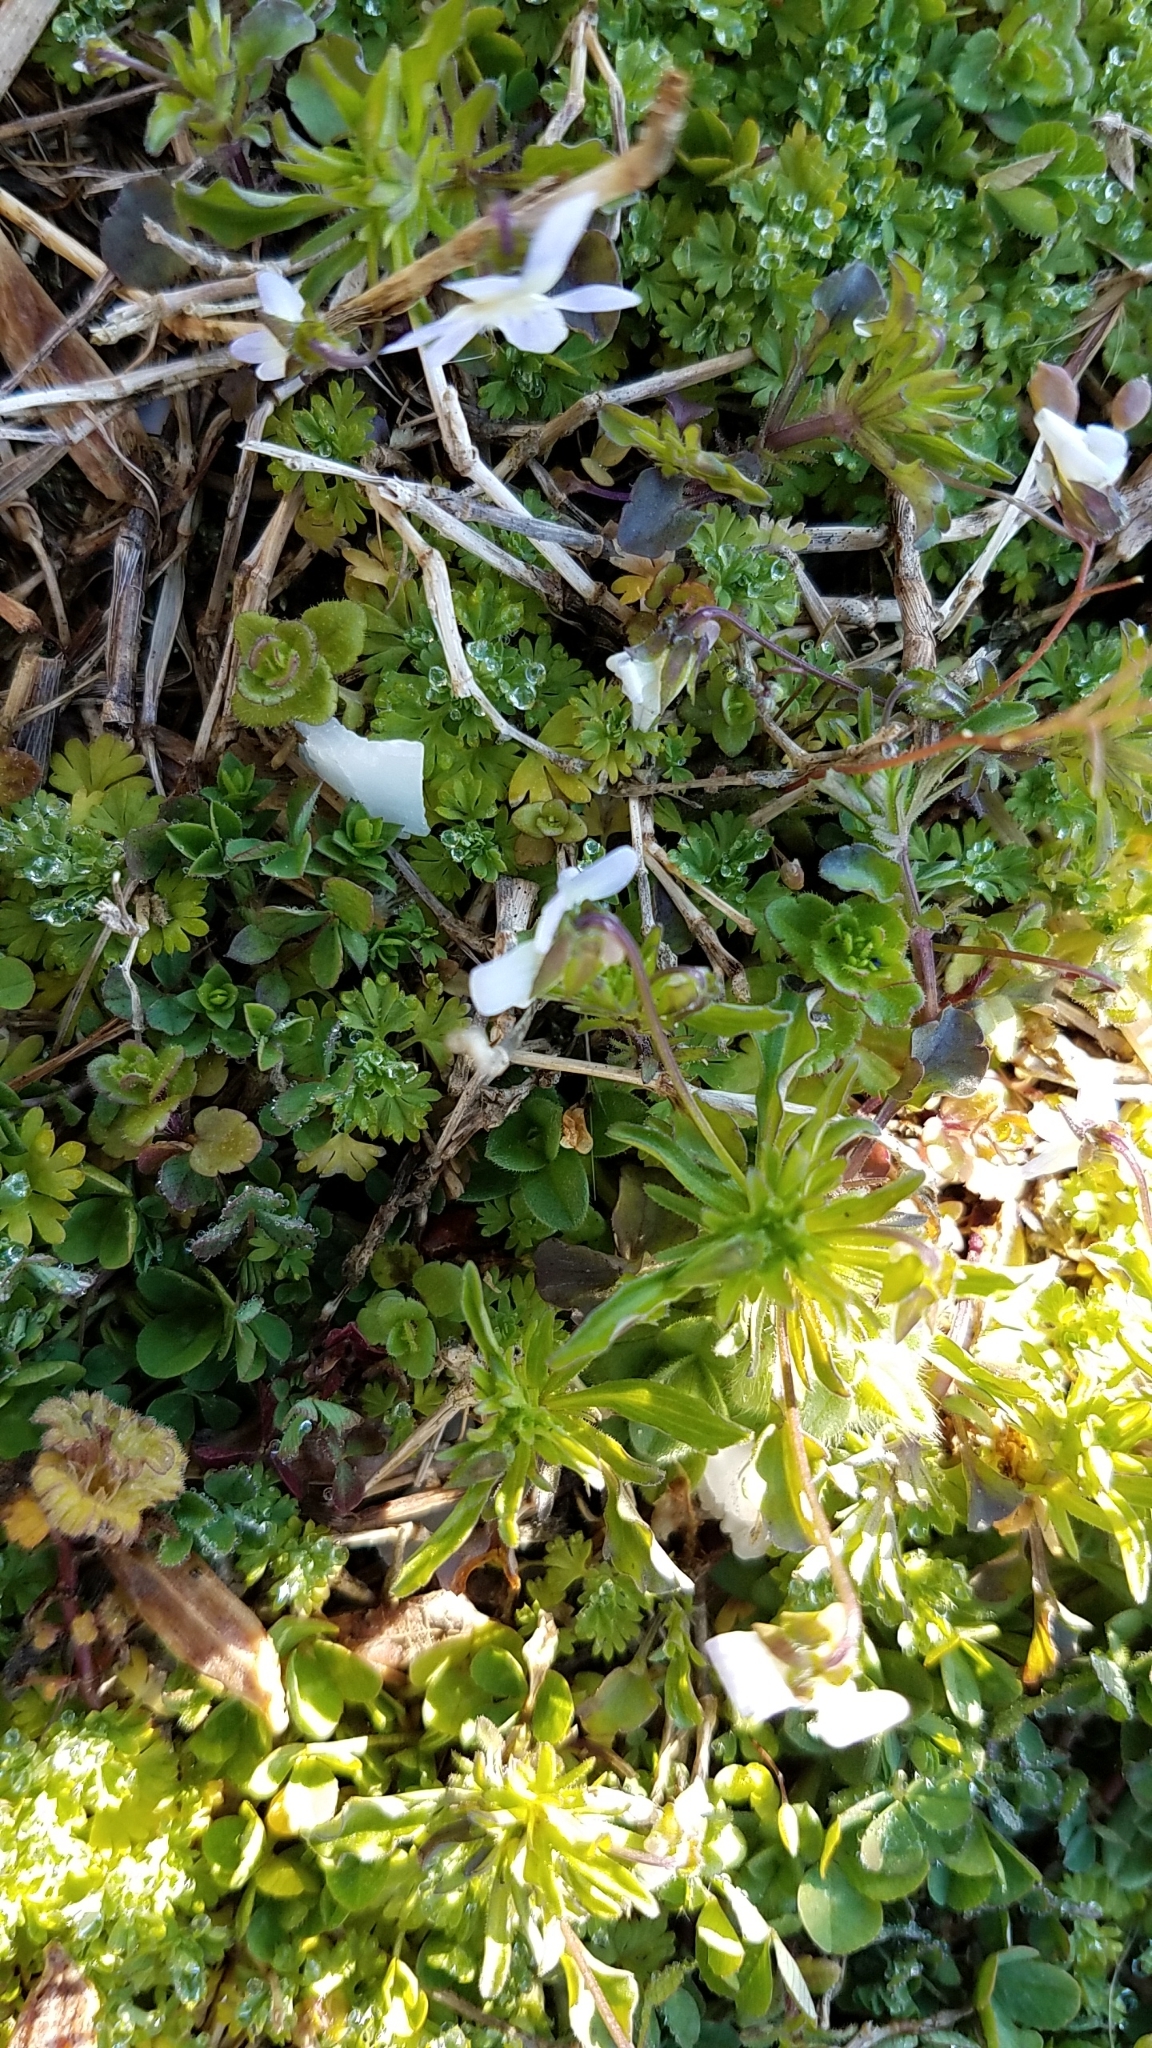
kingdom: Plantae
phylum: Tracheophyta
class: Magnoliopsida
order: Malpighiales
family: Violaceae
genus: Viola
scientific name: Viola rafinesquei
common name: American field pansy
